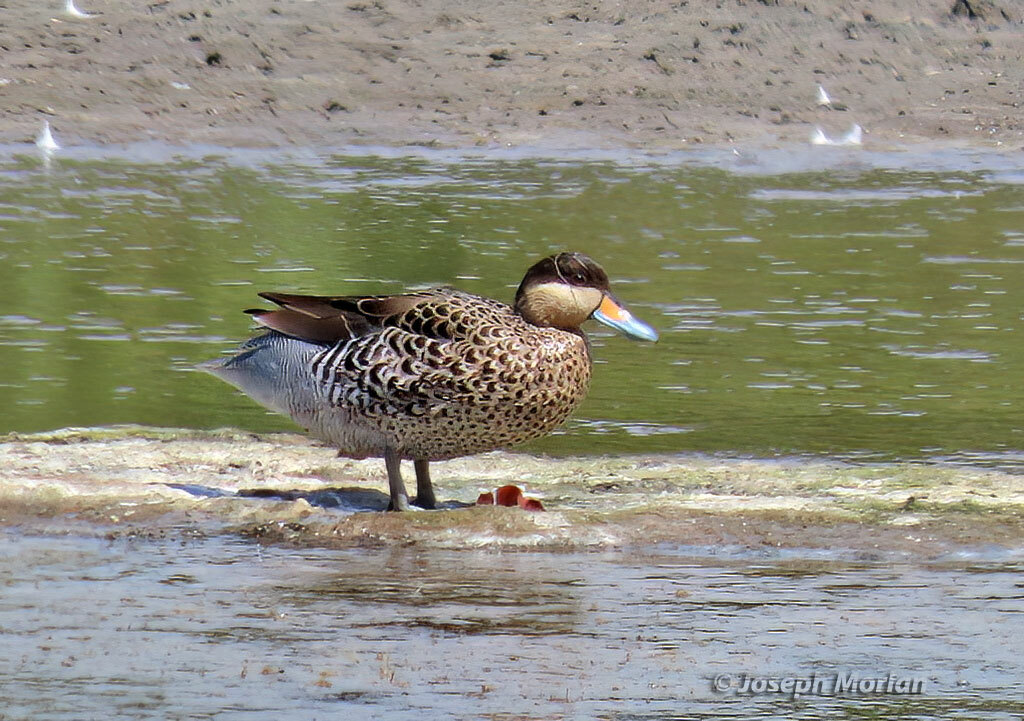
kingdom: Animalia
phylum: Chordata
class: Aves
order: Anseriformes
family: Anatidae
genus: Spatula
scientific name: Spatula versicolor
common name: Silver teal
